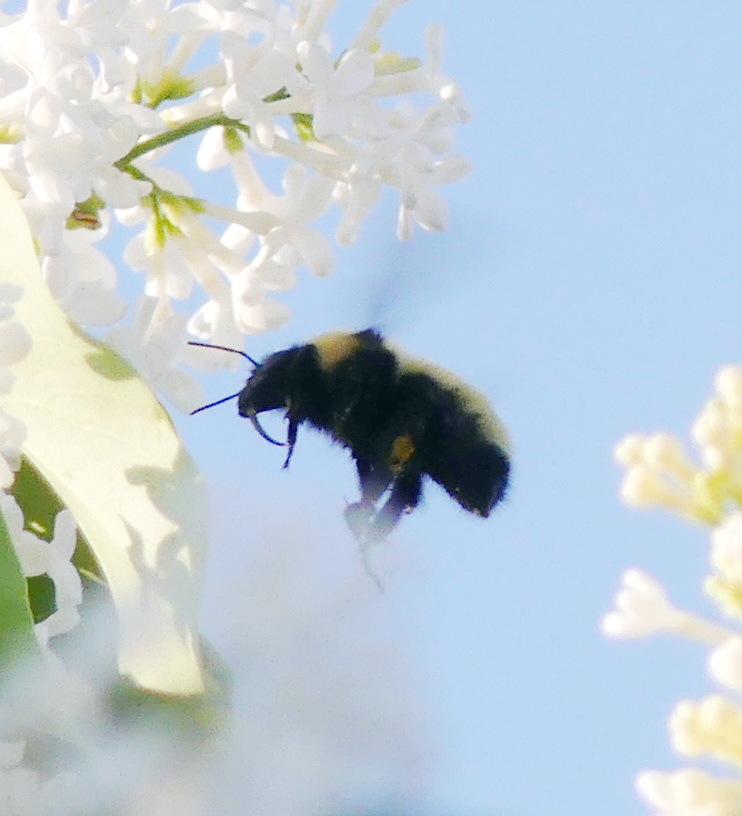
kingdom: Animalia
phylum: Arthropoda
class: Insecta
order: Hymenoptera
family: Apidae
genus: Bombus
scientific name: Bombus borealis
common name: Northern amber bumble bee
